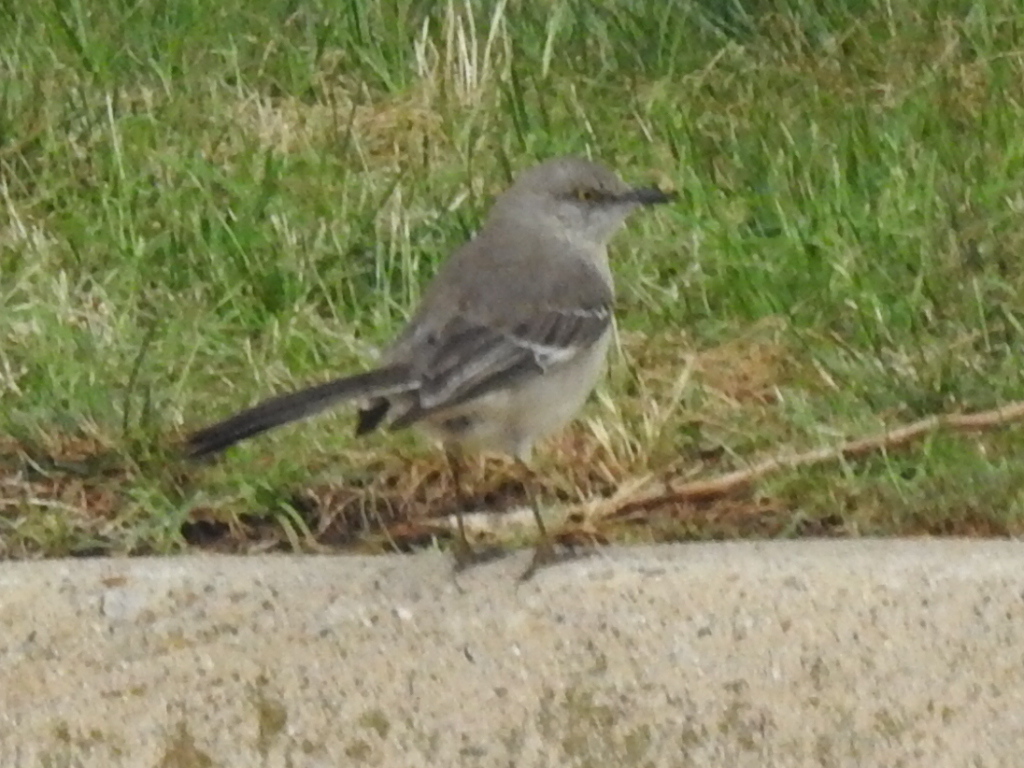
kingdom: Animalia
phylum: Chordata
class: Aves
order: Passeriformes
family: Mimidae
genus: Mimus
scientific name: Mimus polyglottos
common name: Northern mockingbird
